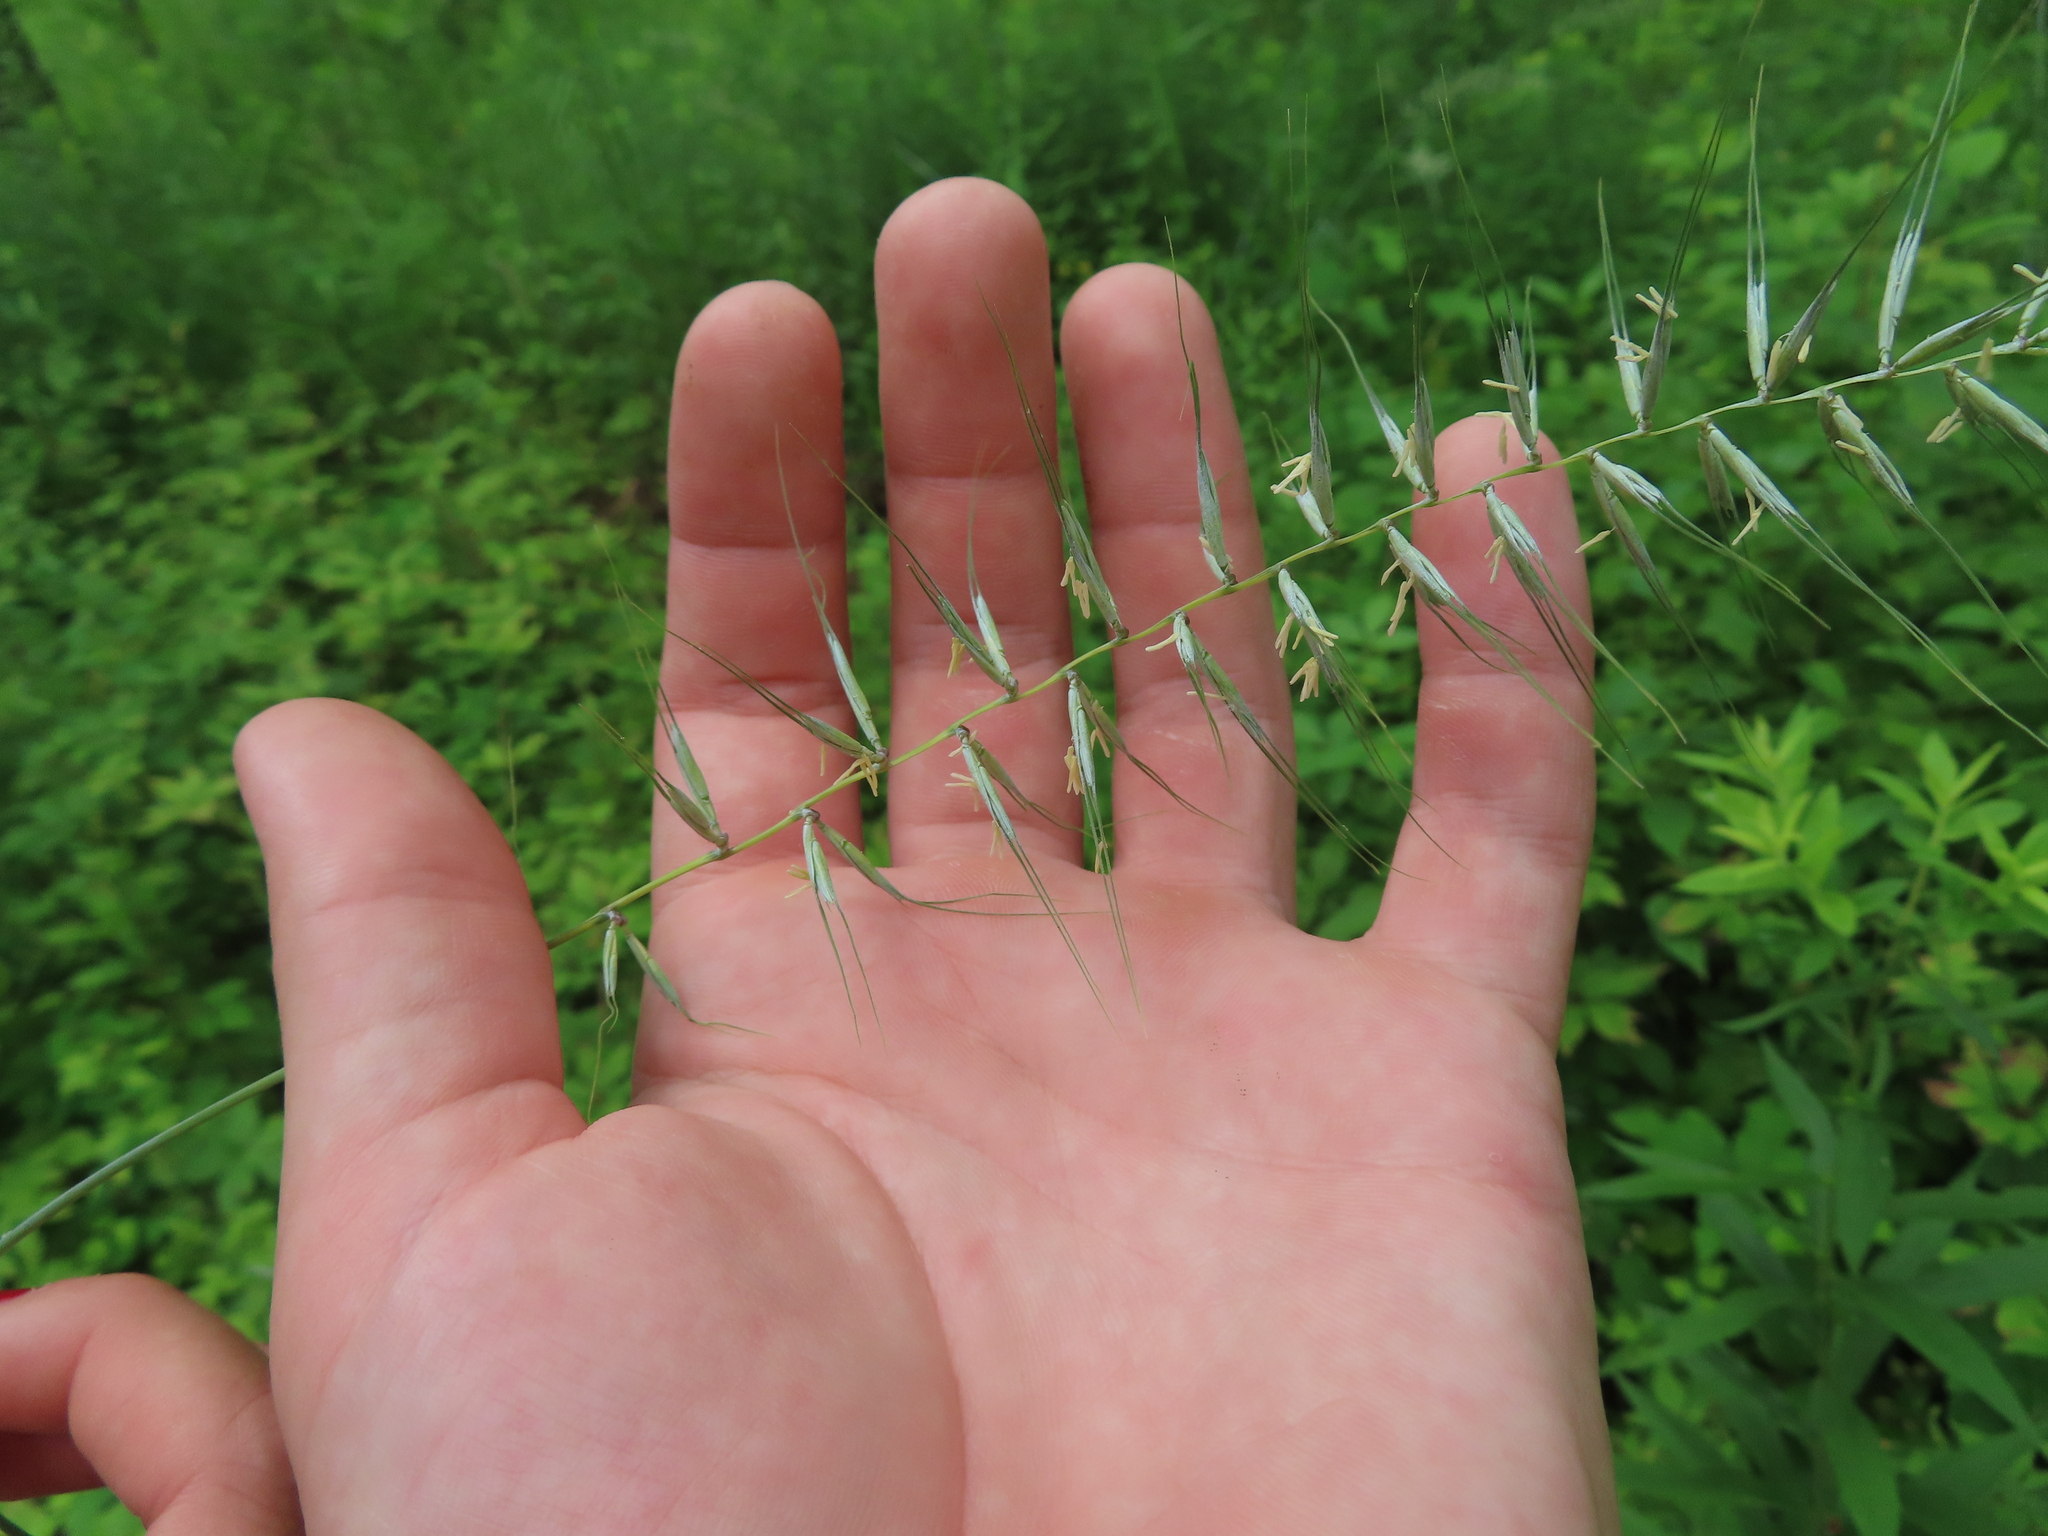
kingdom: Plantae
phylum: Tracheophyta
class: Liliopsida
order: Poales
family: Poaceae
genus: Elymus
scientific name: Elymus hystrix
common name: Bottlebrush grass
